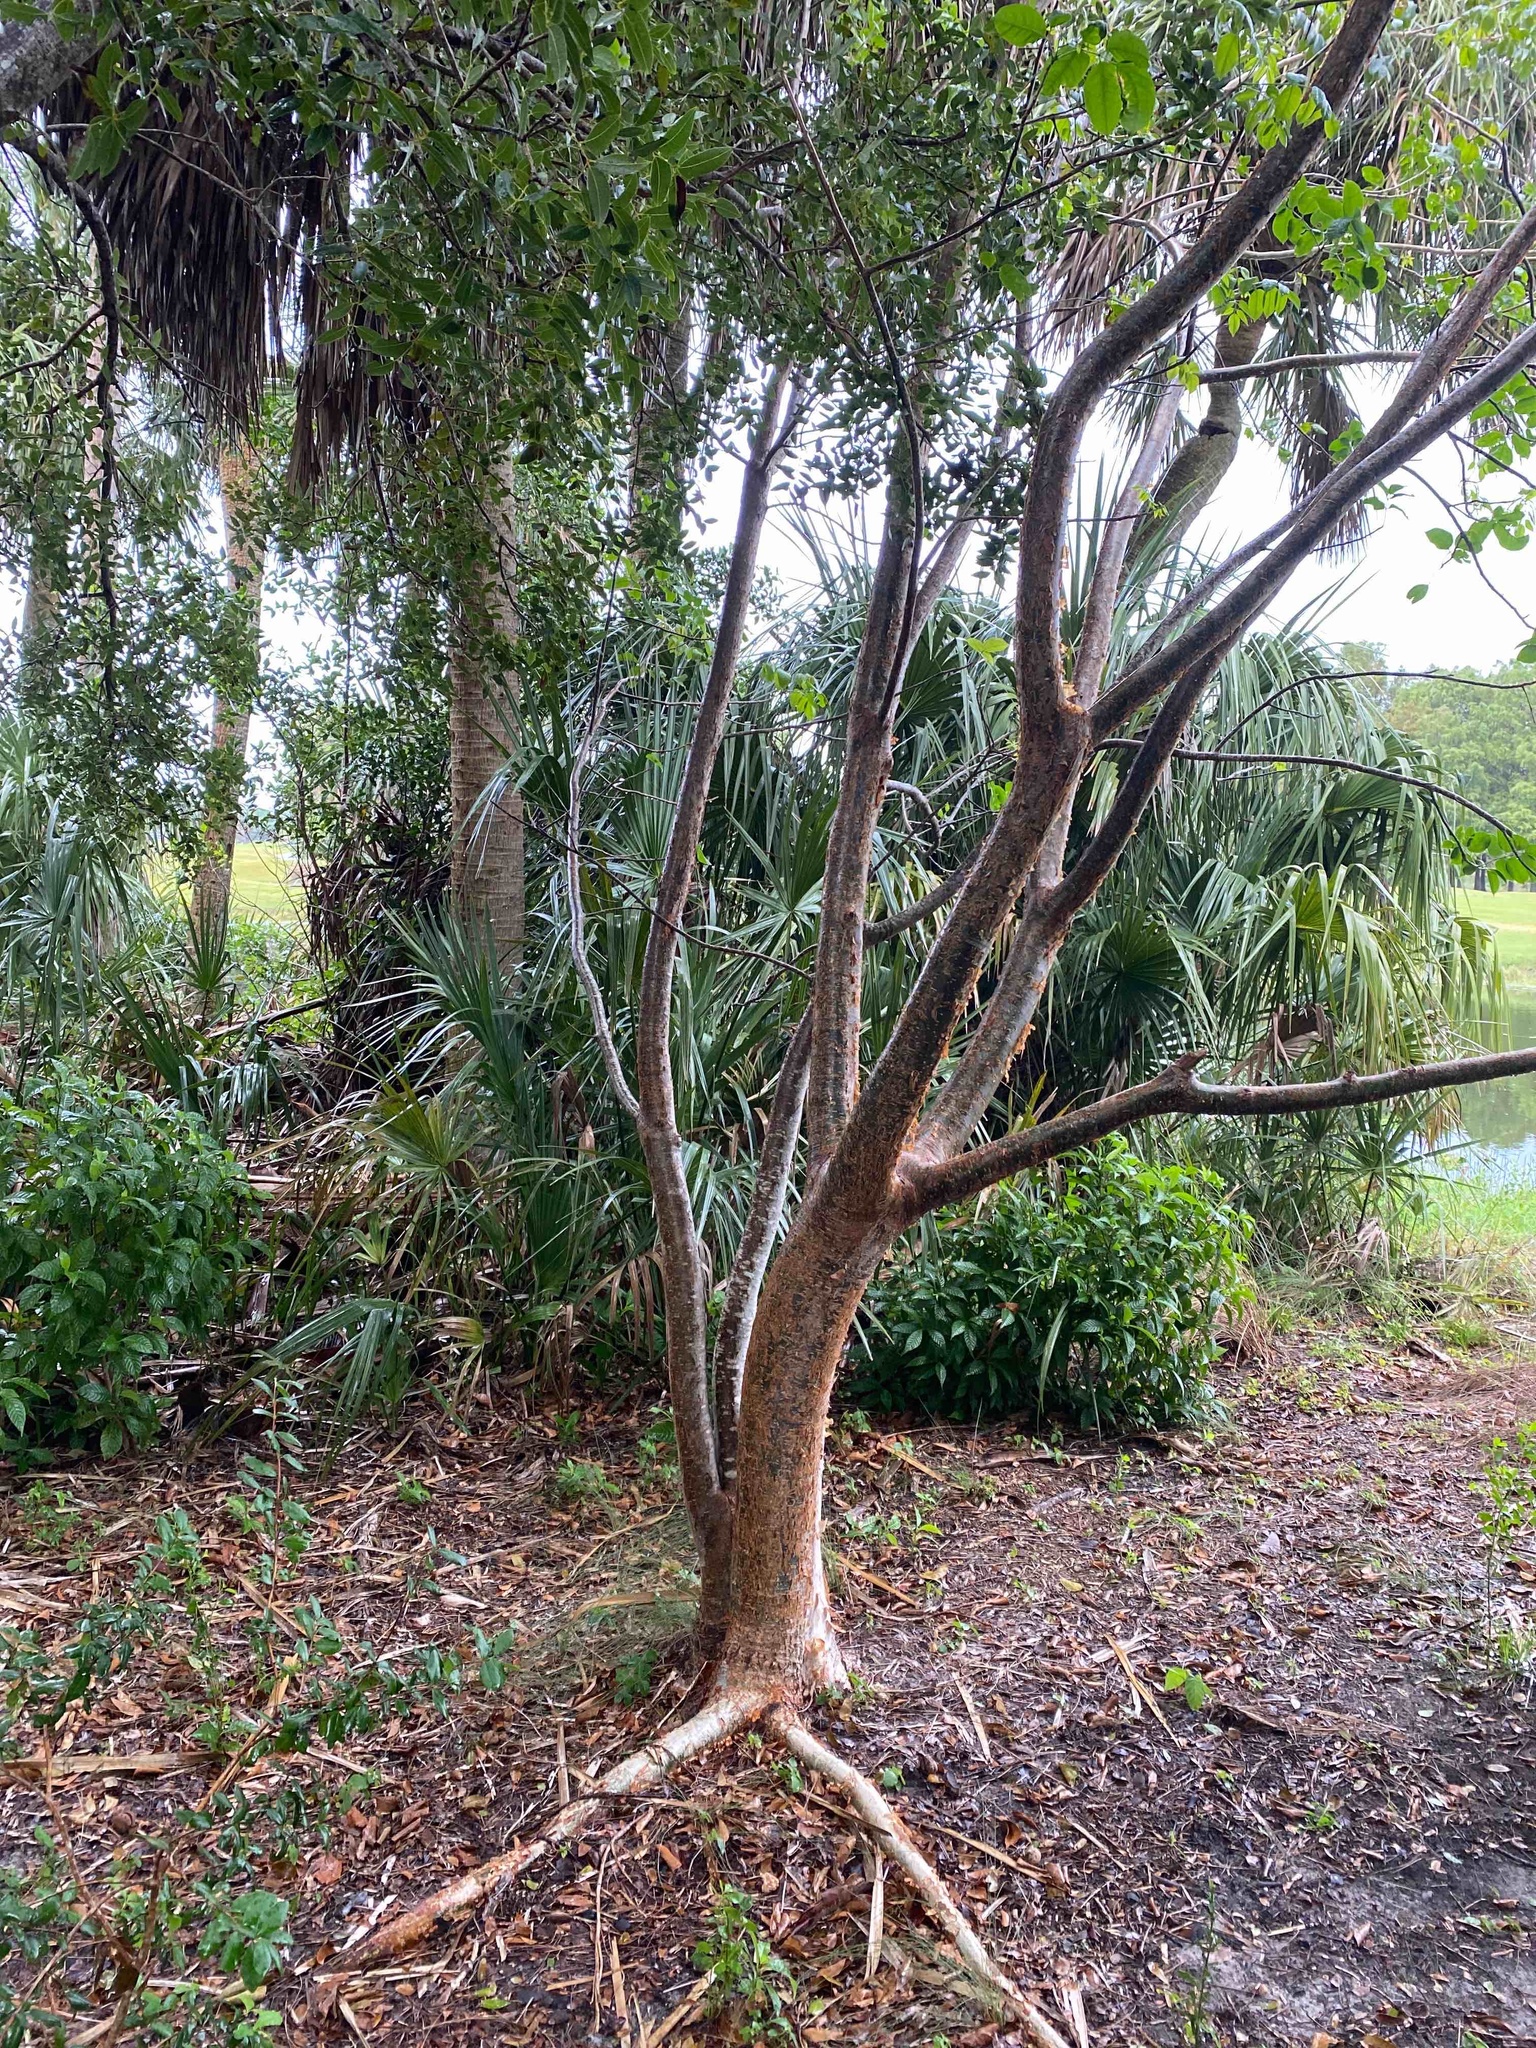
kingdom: Plantae
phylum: Tracheophyta
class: Magnoliopsida
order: Sapindales
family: Burseraceae
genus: Bursera
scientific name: Bursera simaruba
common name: Turpentine tree
